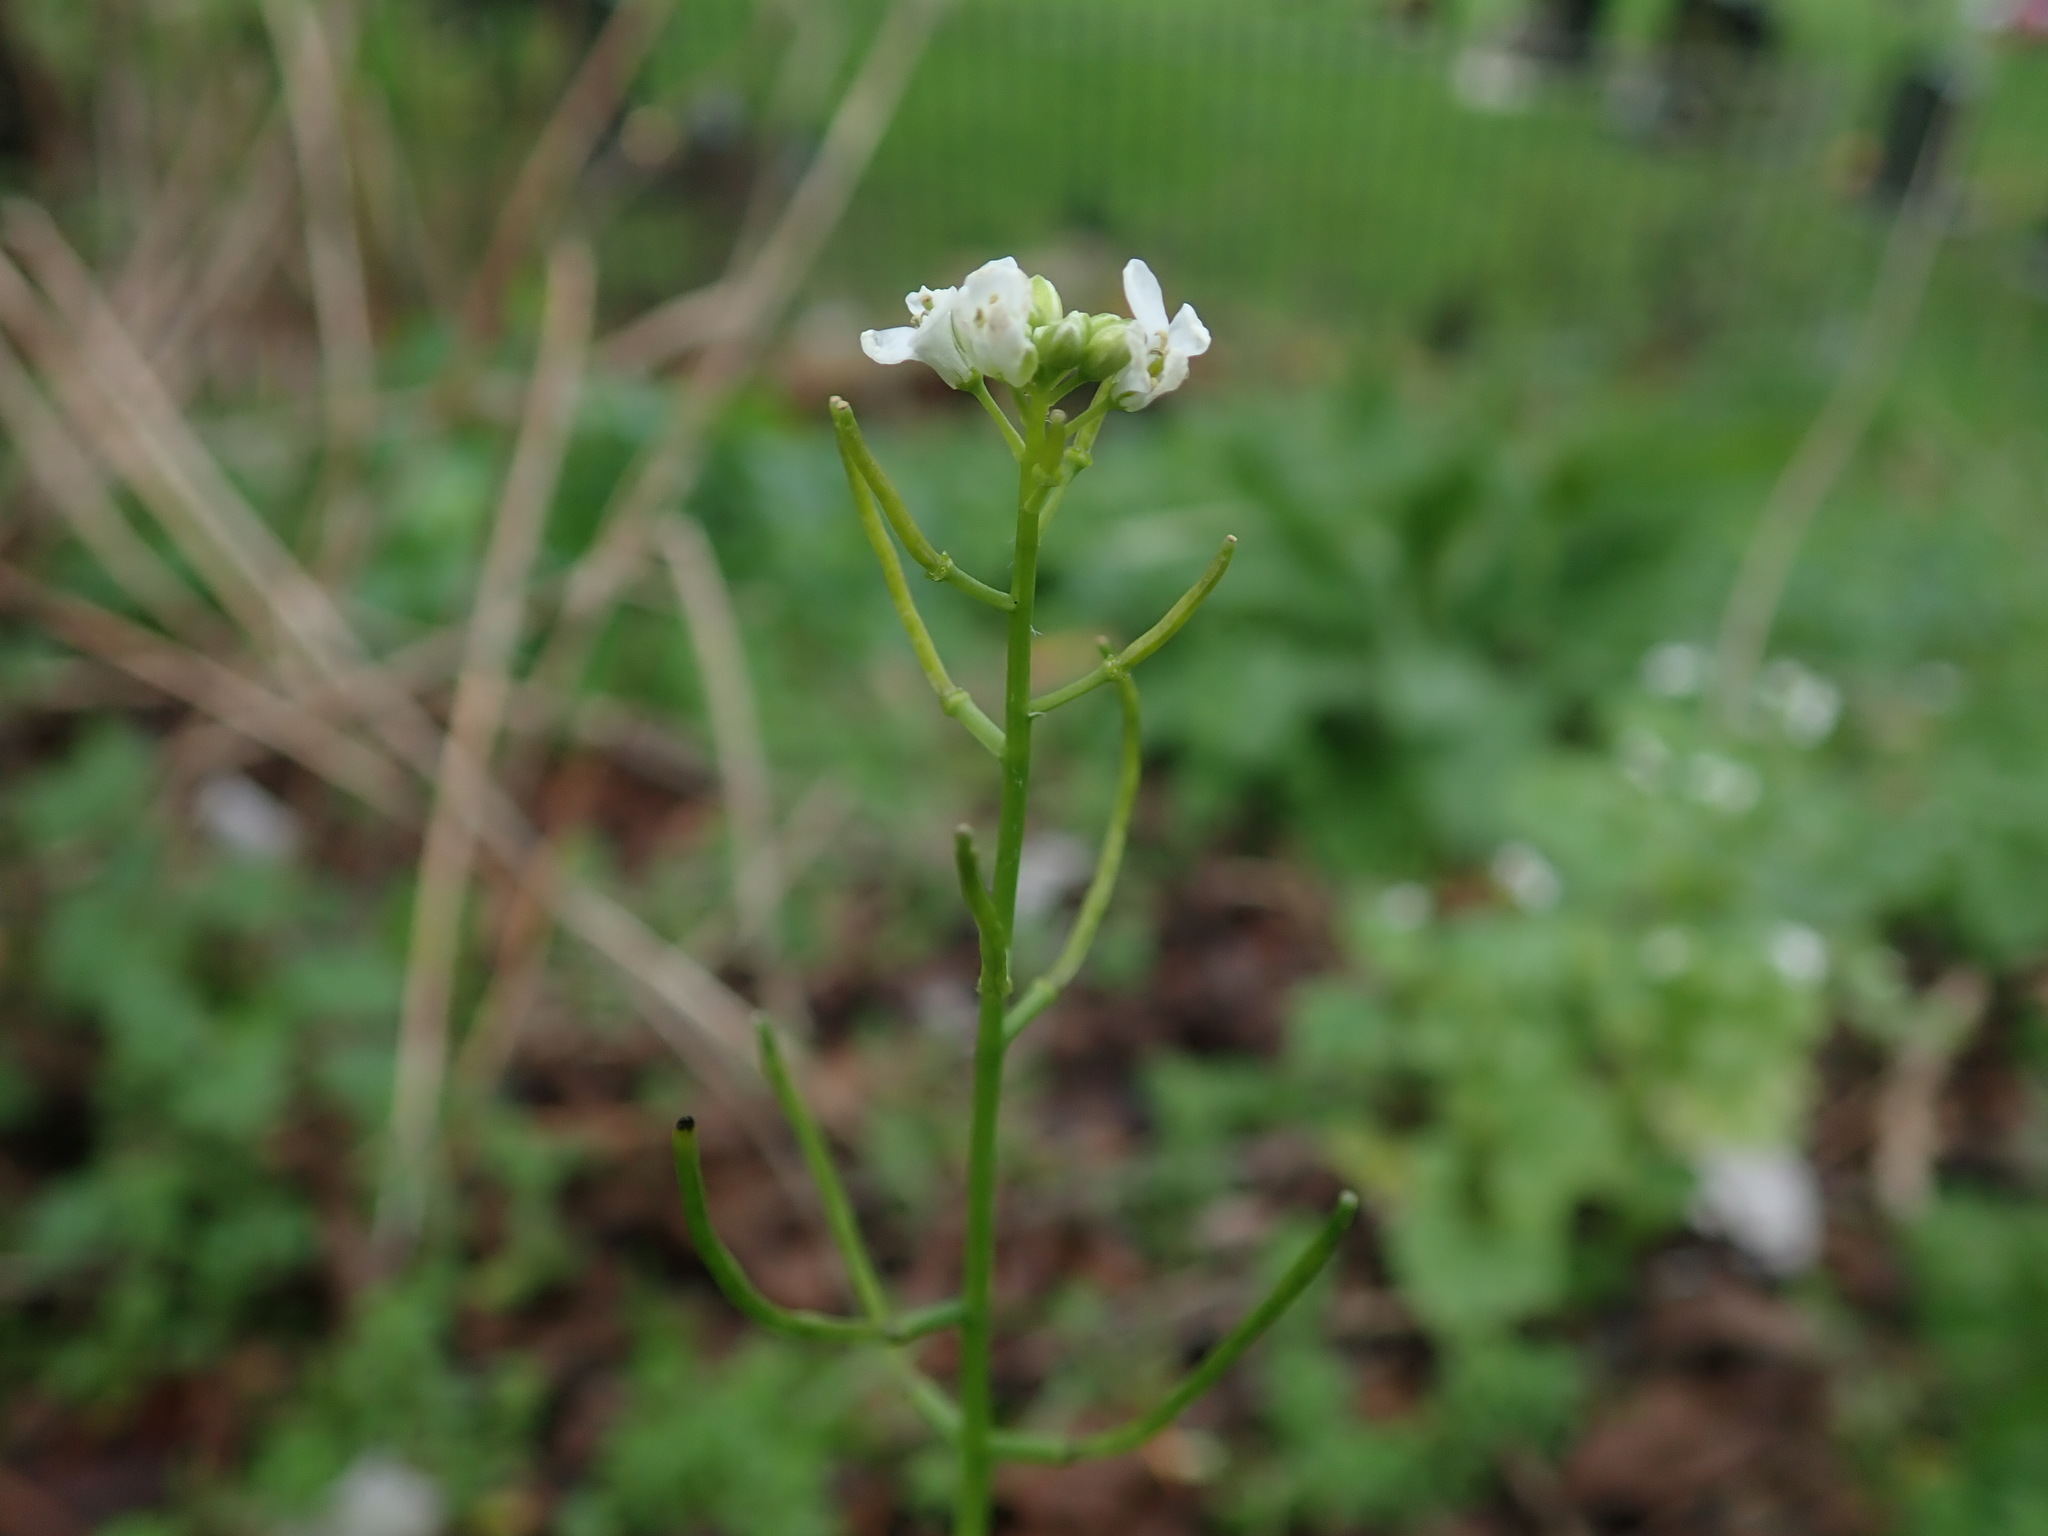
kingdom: Plantae
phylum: Tracheophyta
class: Magnoliopsida
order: Brassicales
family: Brassicaceae
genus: Alliaria
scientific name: Alliaria petiolata
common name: Garlic mustard
